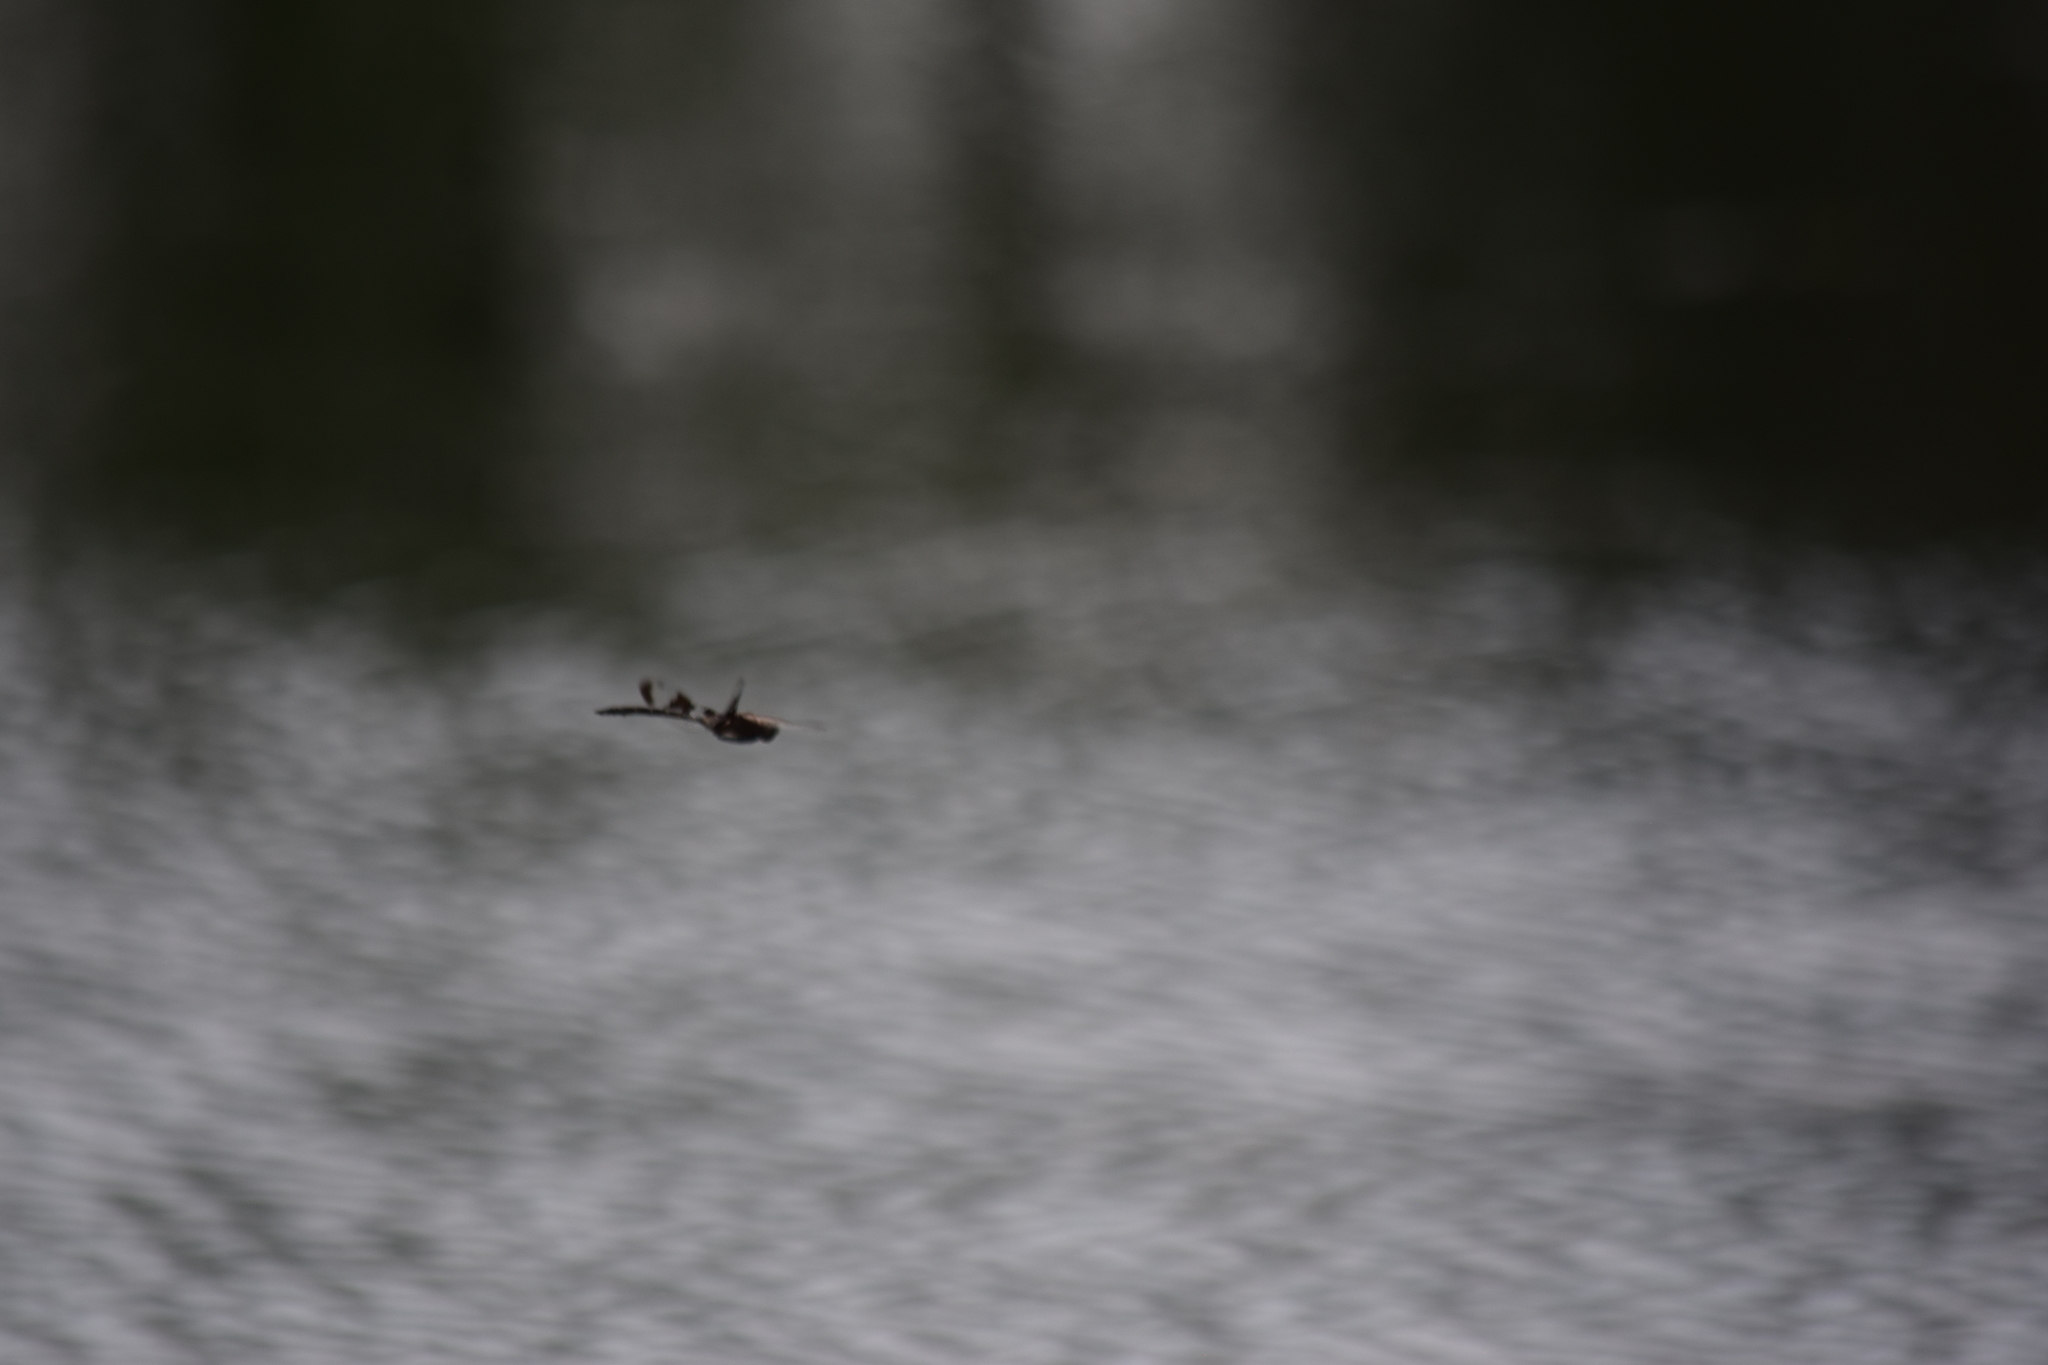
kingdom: Animalia
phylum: Arthropoda
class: Insecta
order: Odonata
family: Corduliidae
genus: Epitheca
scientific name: Epitheca princeps
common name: Prince baskettail
